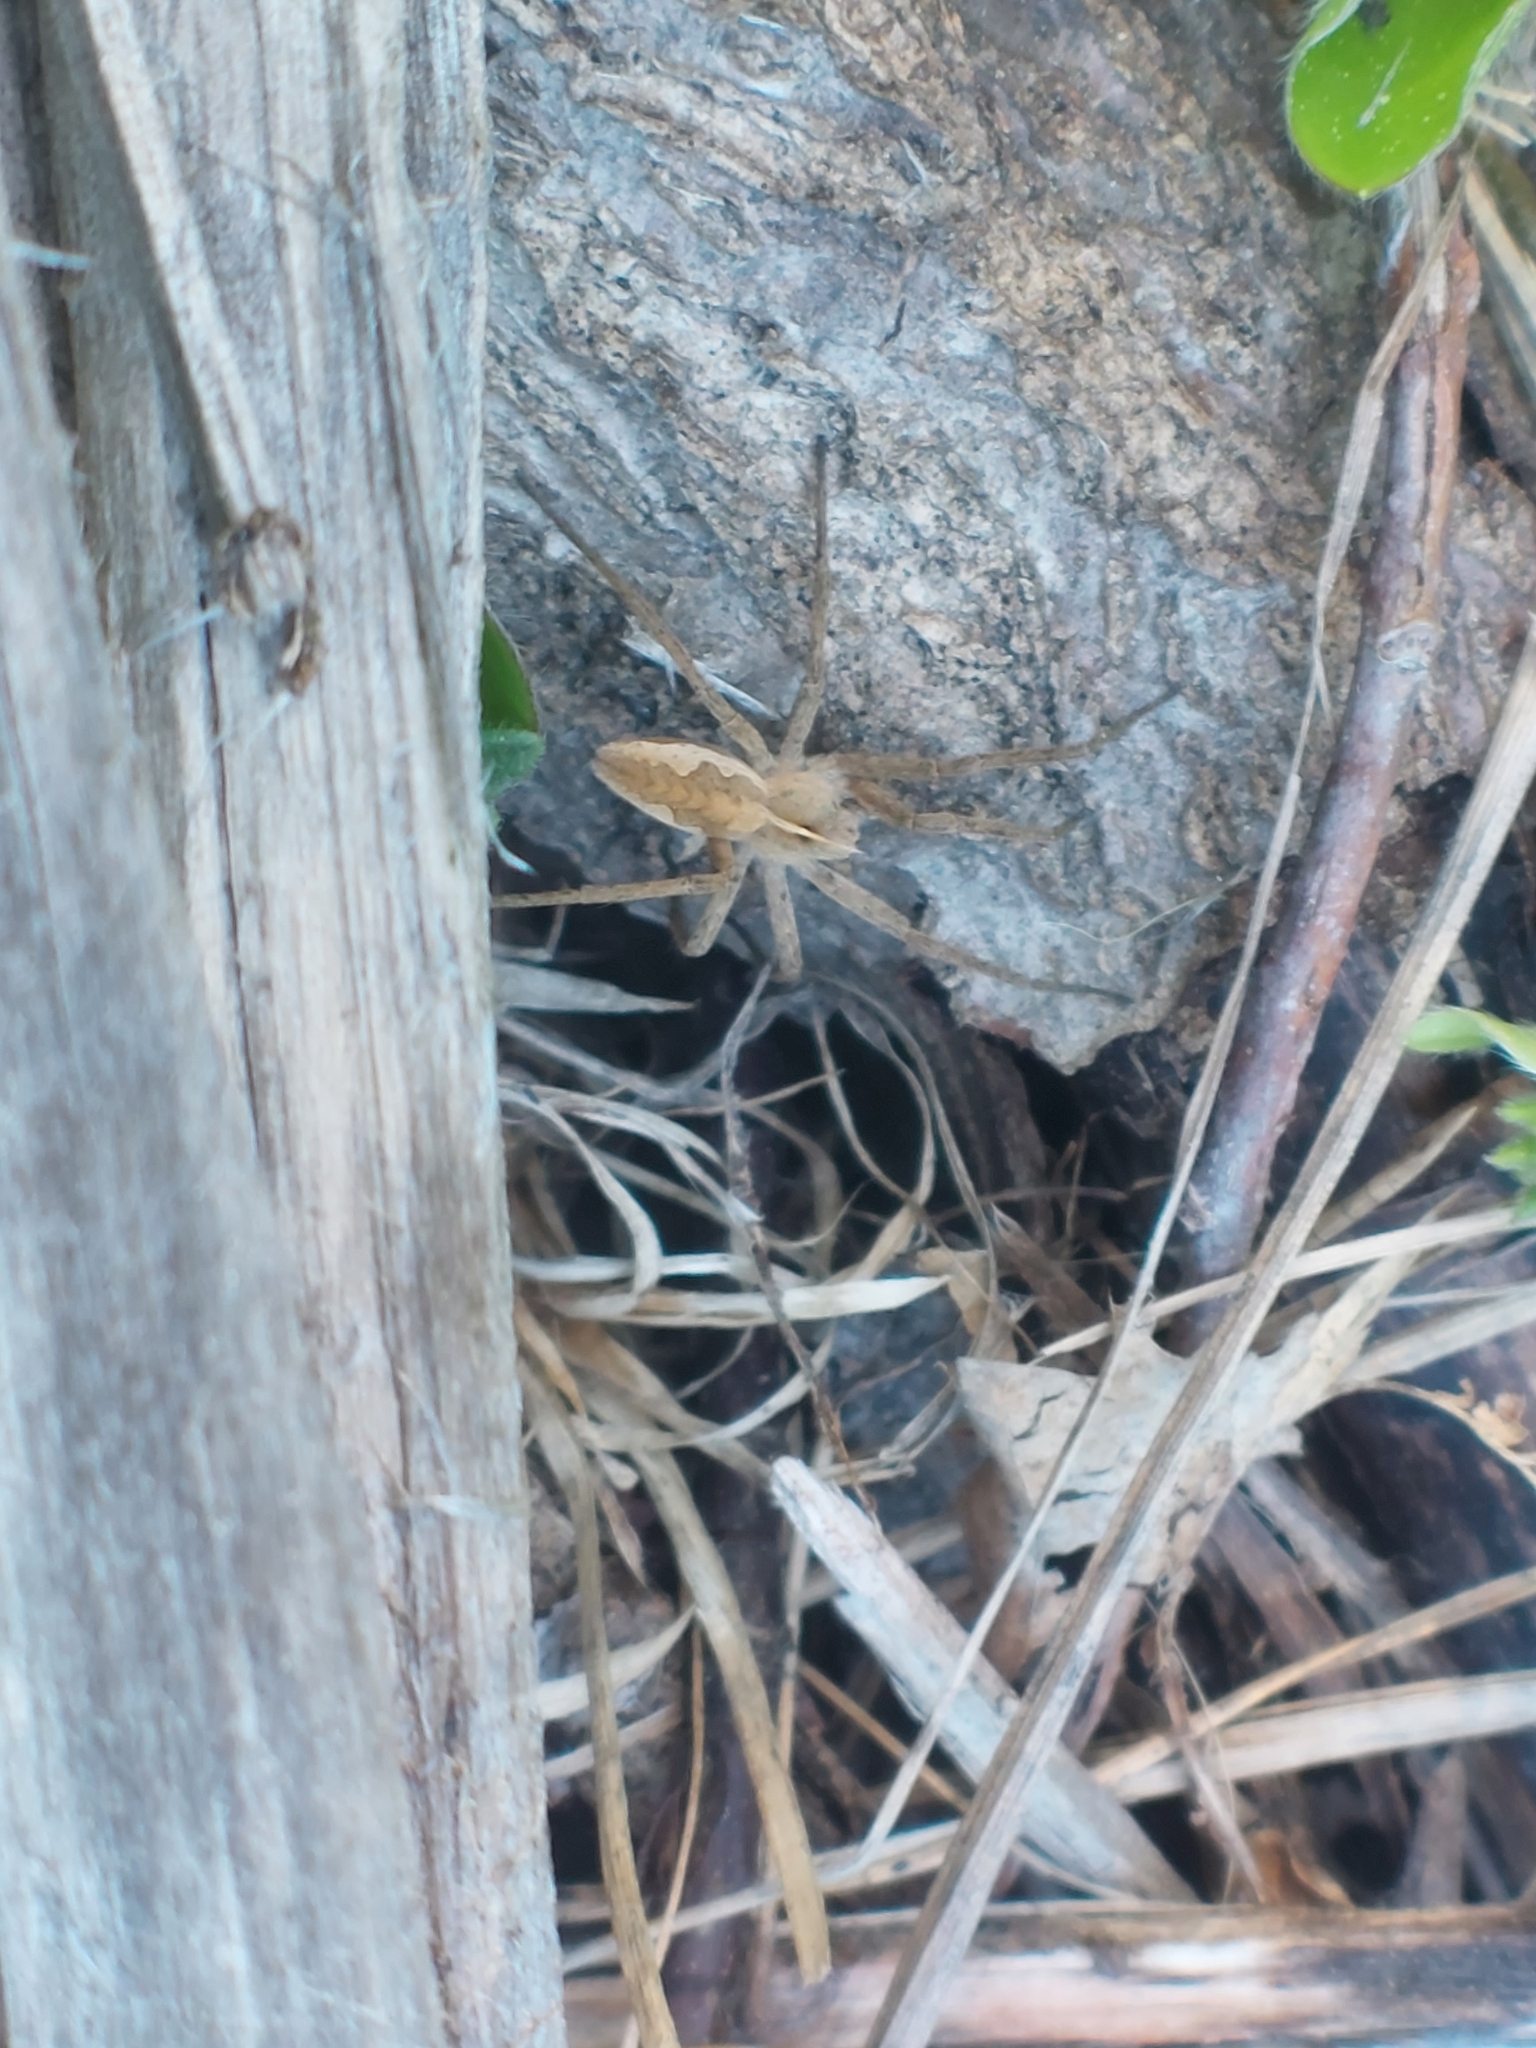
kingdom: Animalia
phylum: Arthropoda
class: Arachnida
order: Araneae
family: Pisauridae
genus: Pisaura
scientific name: Pisaura mirabilis
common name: Tent spider
